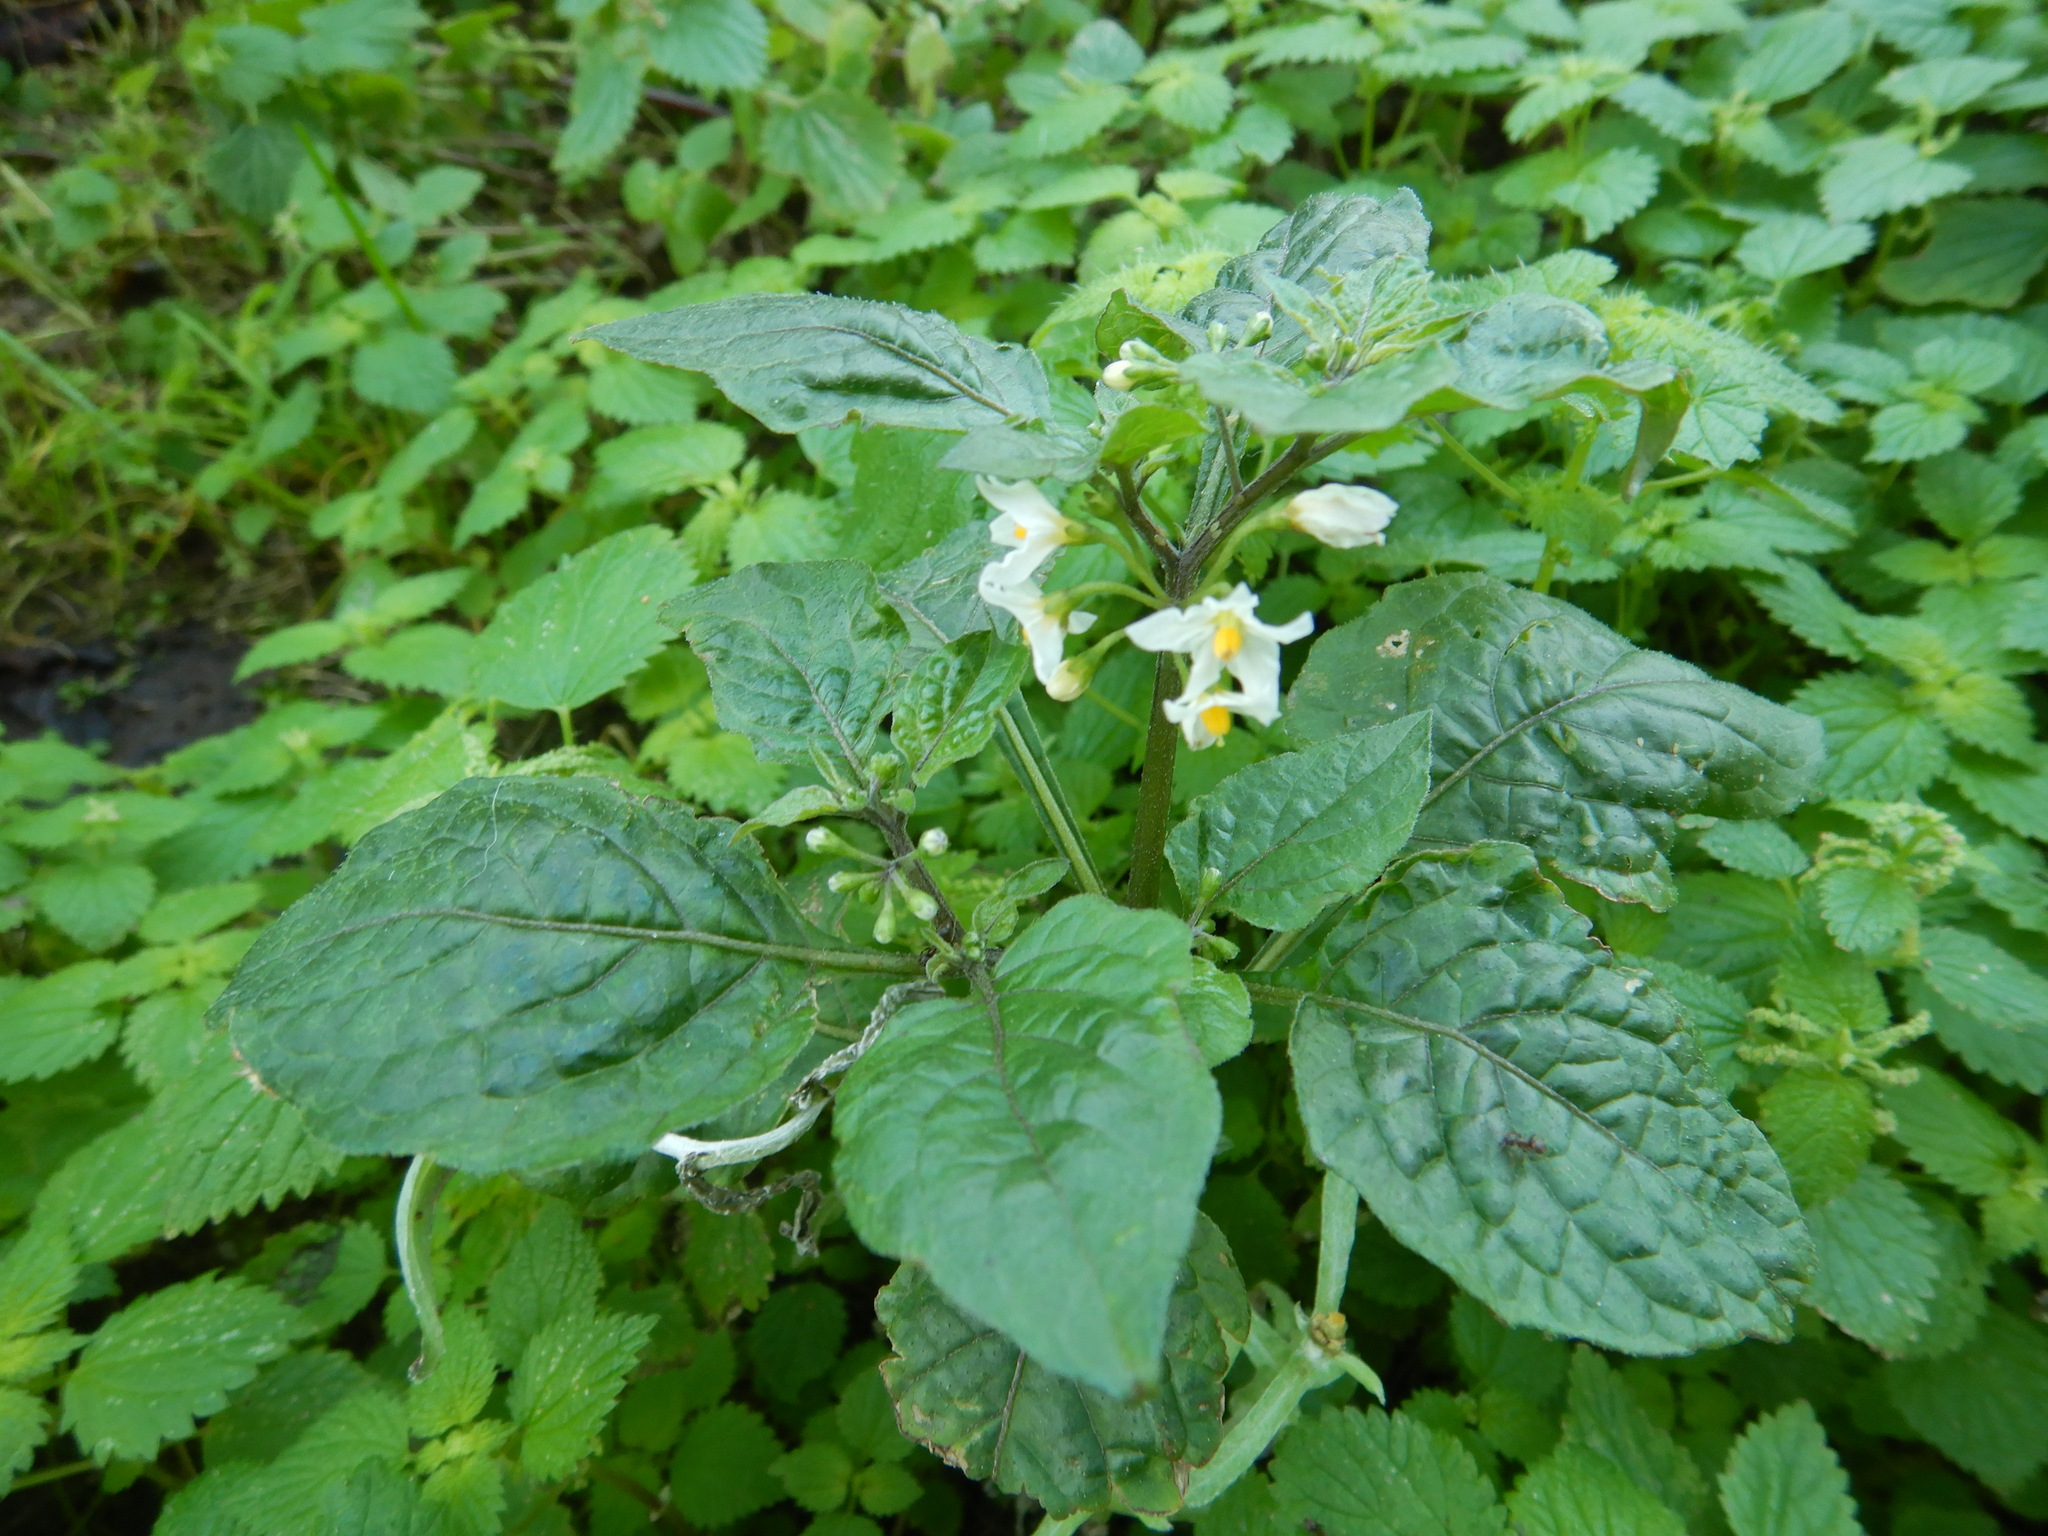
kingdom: Plantae
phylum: Tracheophyta
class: Magnoliopsida
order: Solanales
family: Solanaceae
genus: Solanum
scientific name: Solanum nigrum
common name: Black nightshade
